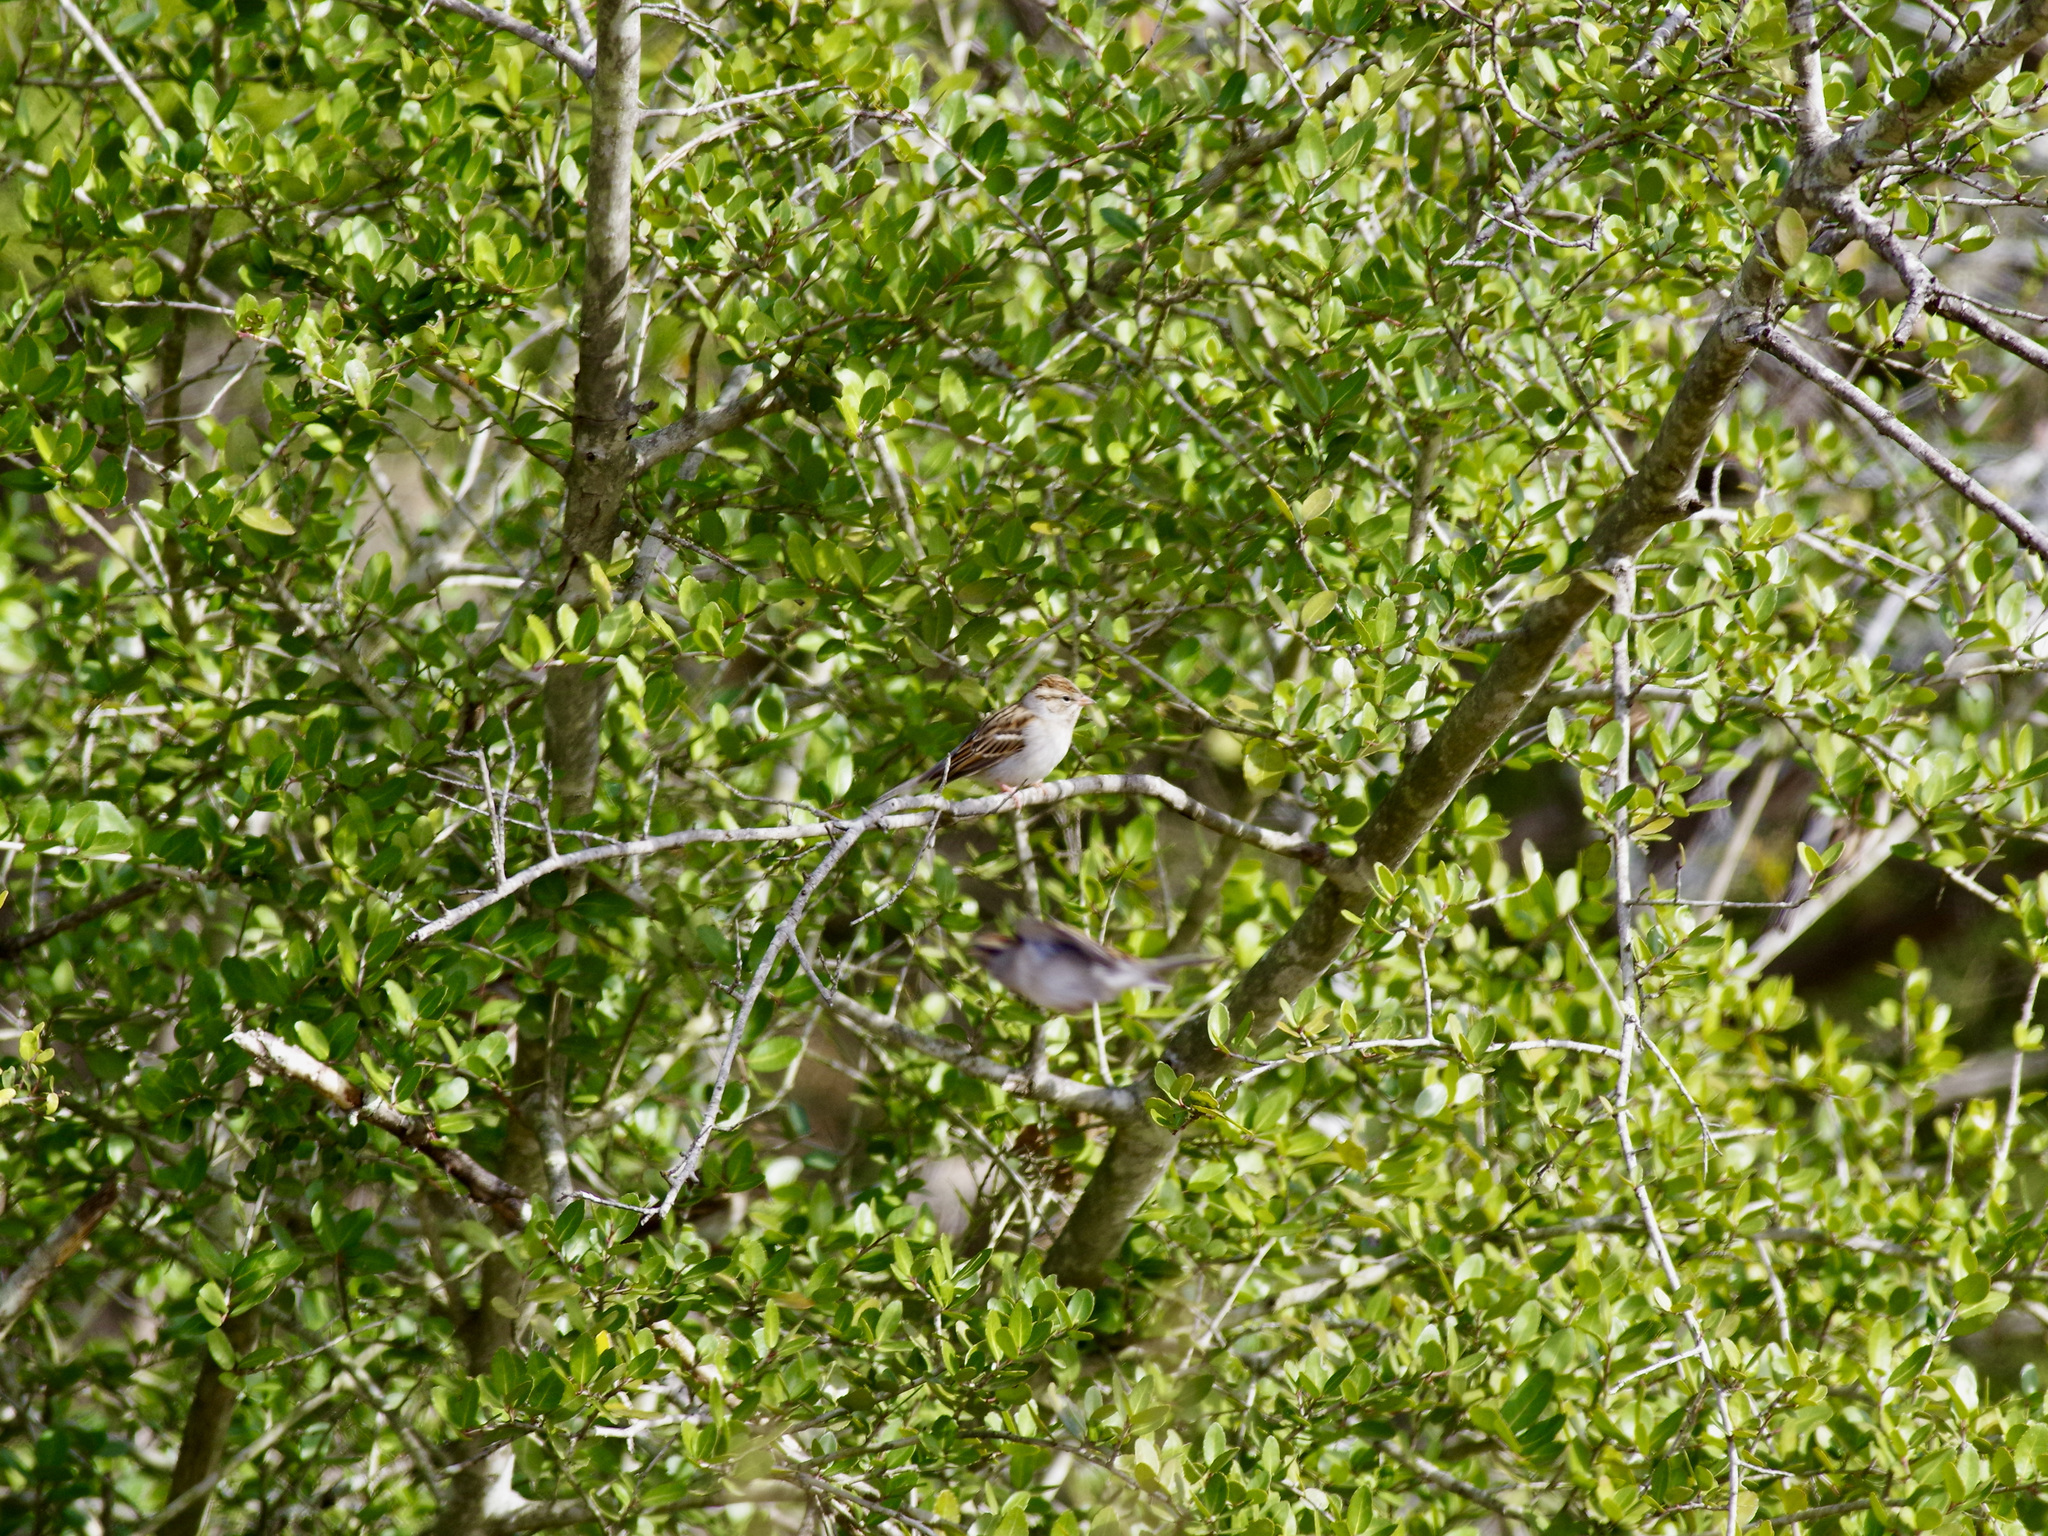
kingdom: Animalia
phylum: Chordata
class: Aves
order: Passeriformes
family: Passerellidae
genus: Spizella
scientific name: Spizella passerina
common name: Chipping sparrow
